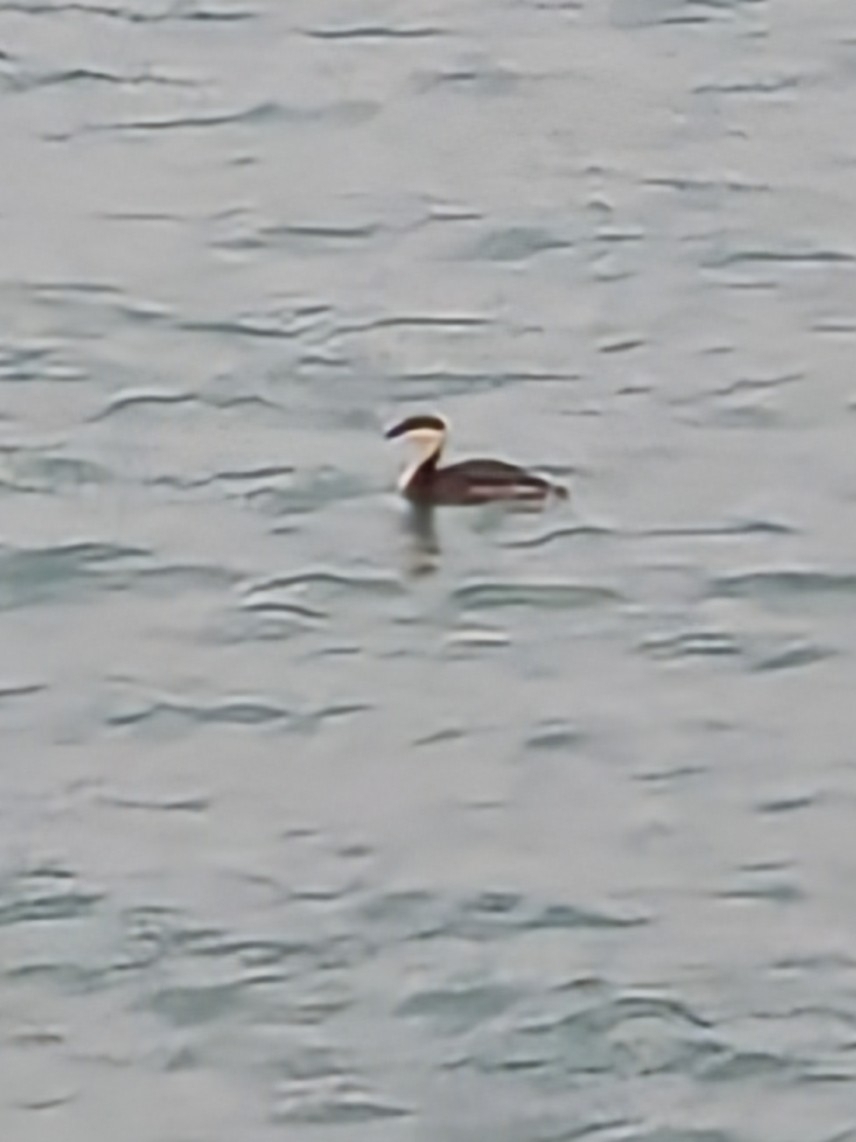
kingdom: Animalia
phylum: Chordata
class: Aves
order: Podicipediformes
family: Podicipedidae
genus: Podiceps
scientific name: Podiceps auritus
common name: Horned grebe
